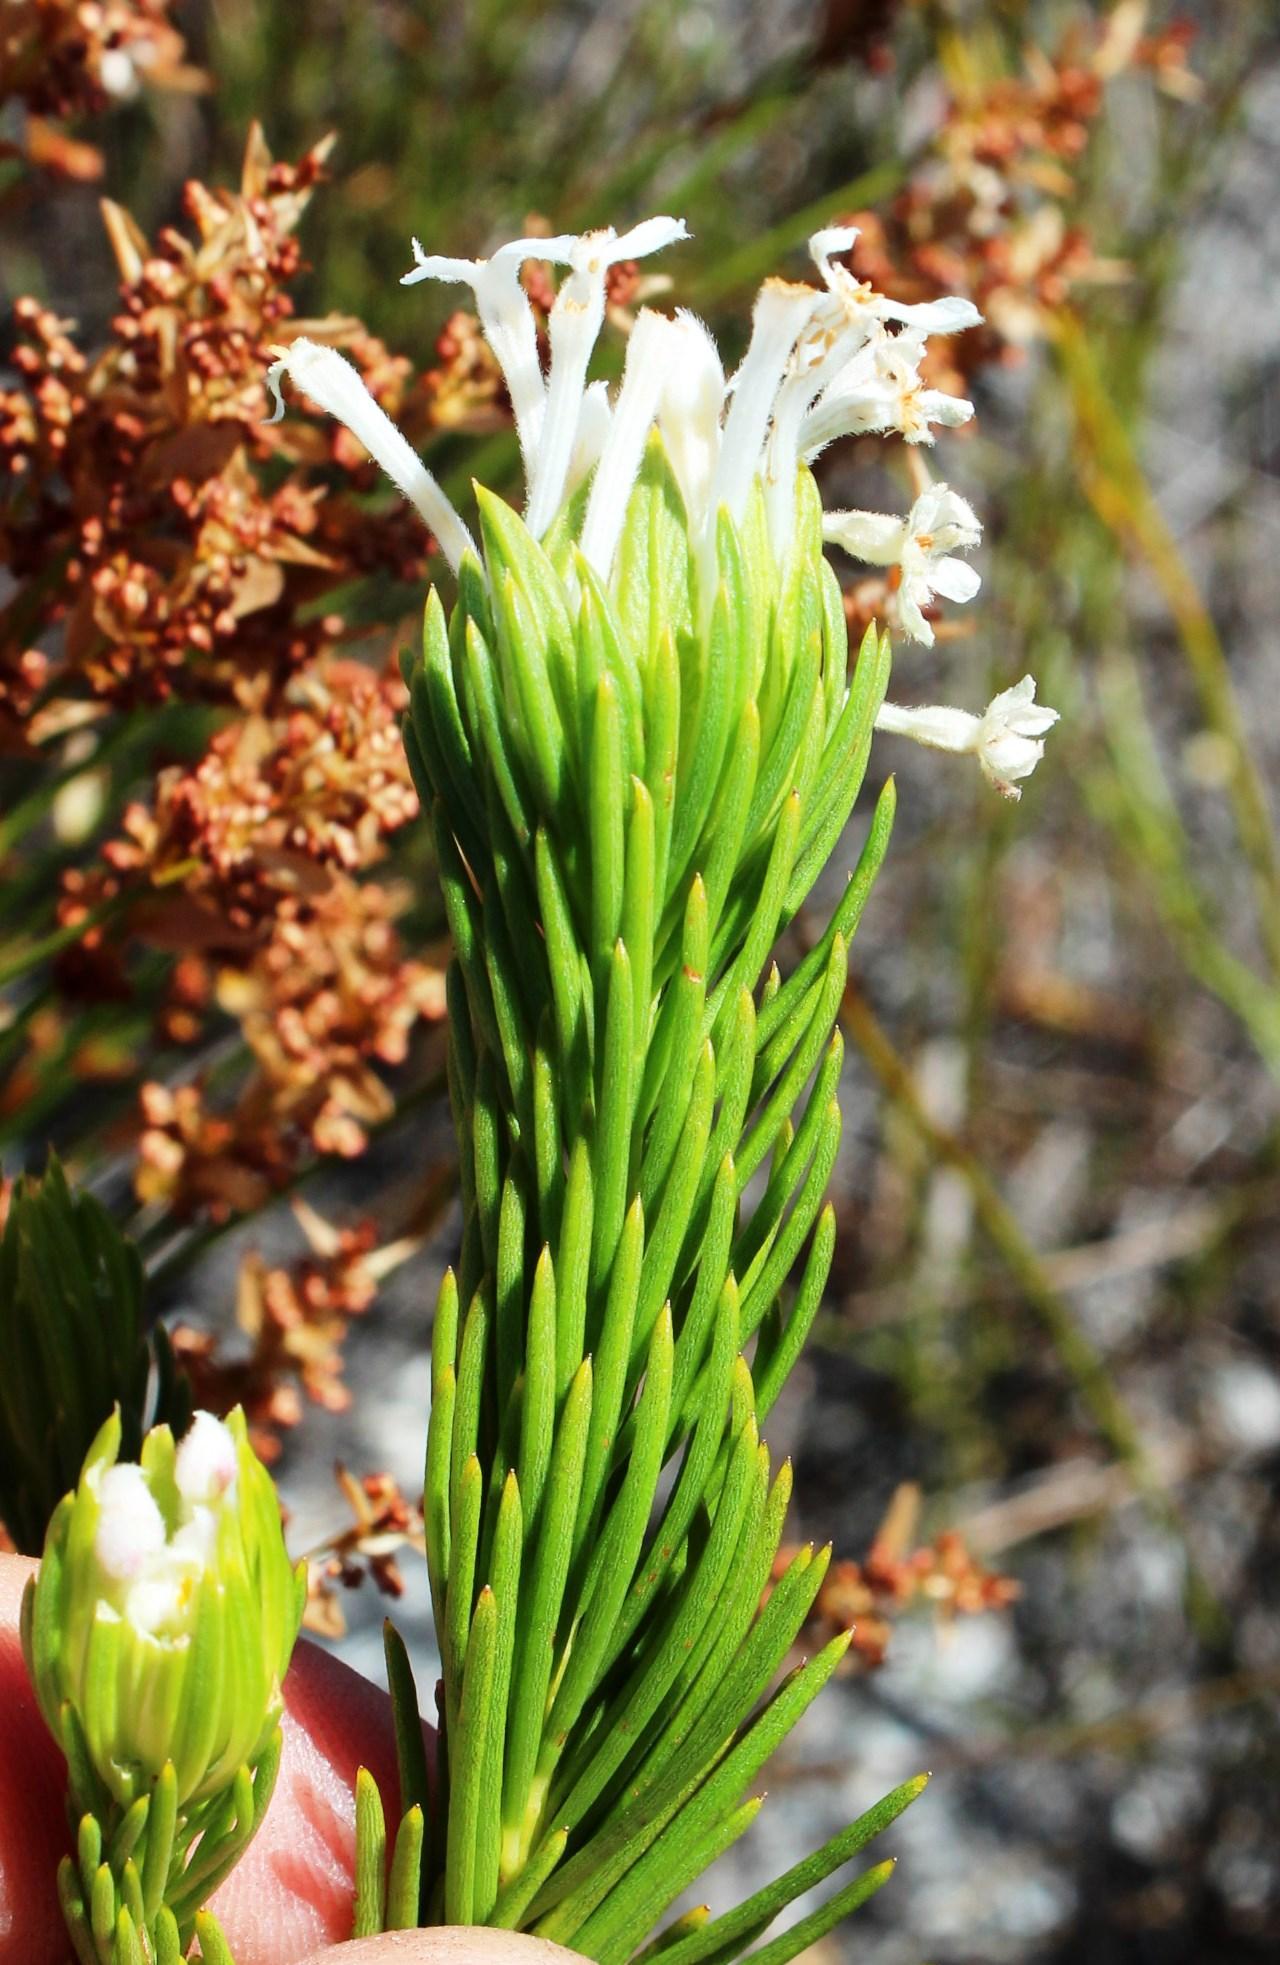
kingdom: Plantae
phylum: Tracheophyta
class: Magnoliopsida
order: Malvales
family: Thymelaeaceae
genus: Gnidia
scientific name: Gnidia pinifolia
